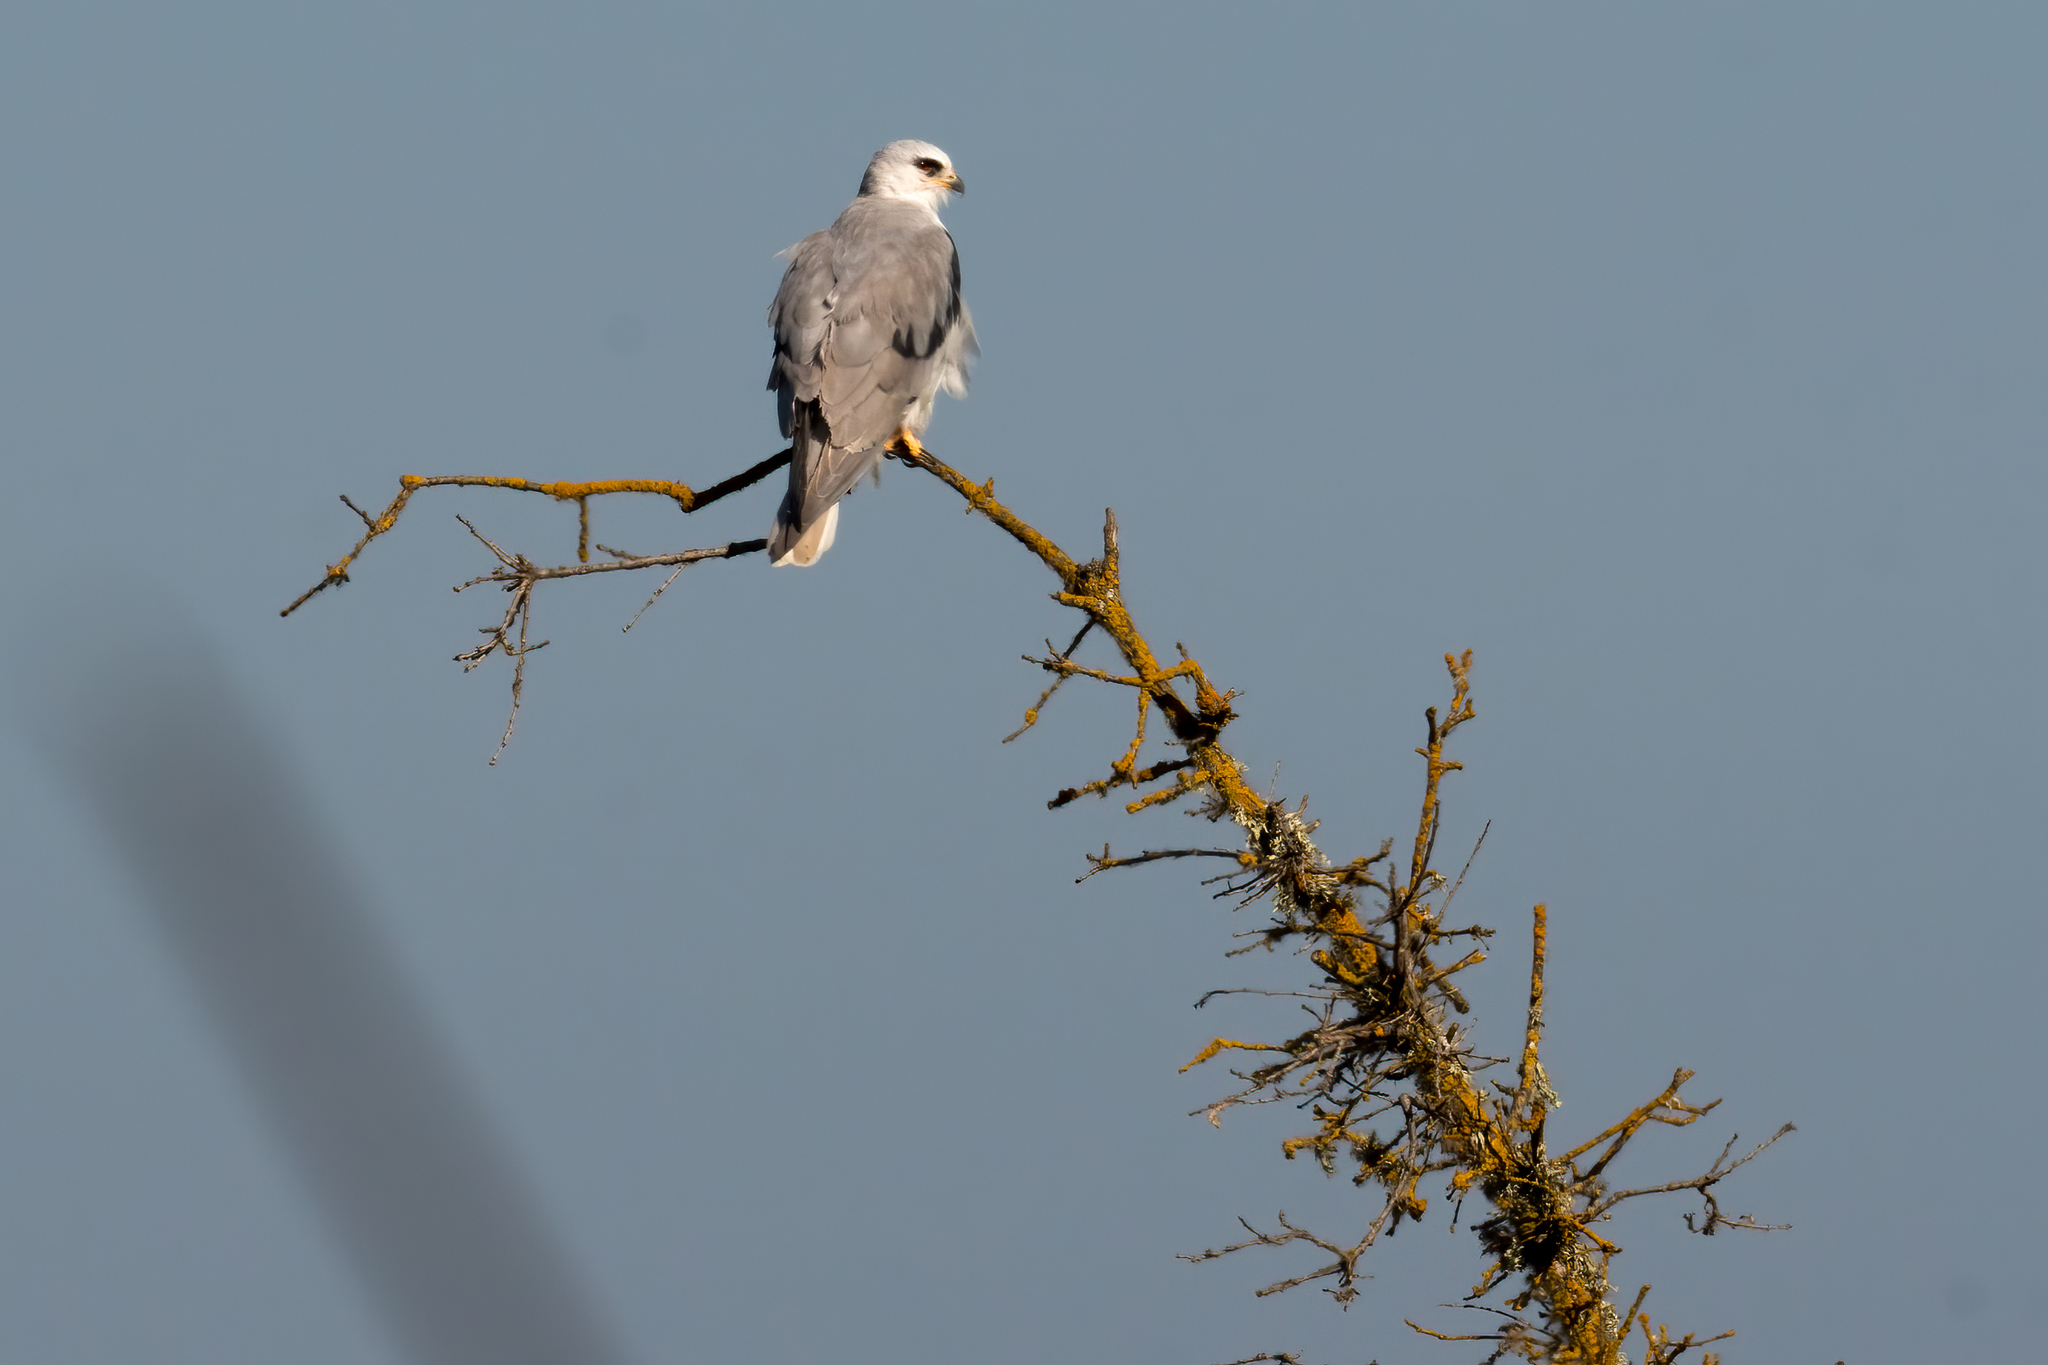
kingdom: Animalia
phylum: Chordata
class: Aves
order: Accipitriformes
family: Accipitridae
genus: Elanus
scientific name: Elanus leucurus
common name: White-tailed kite
